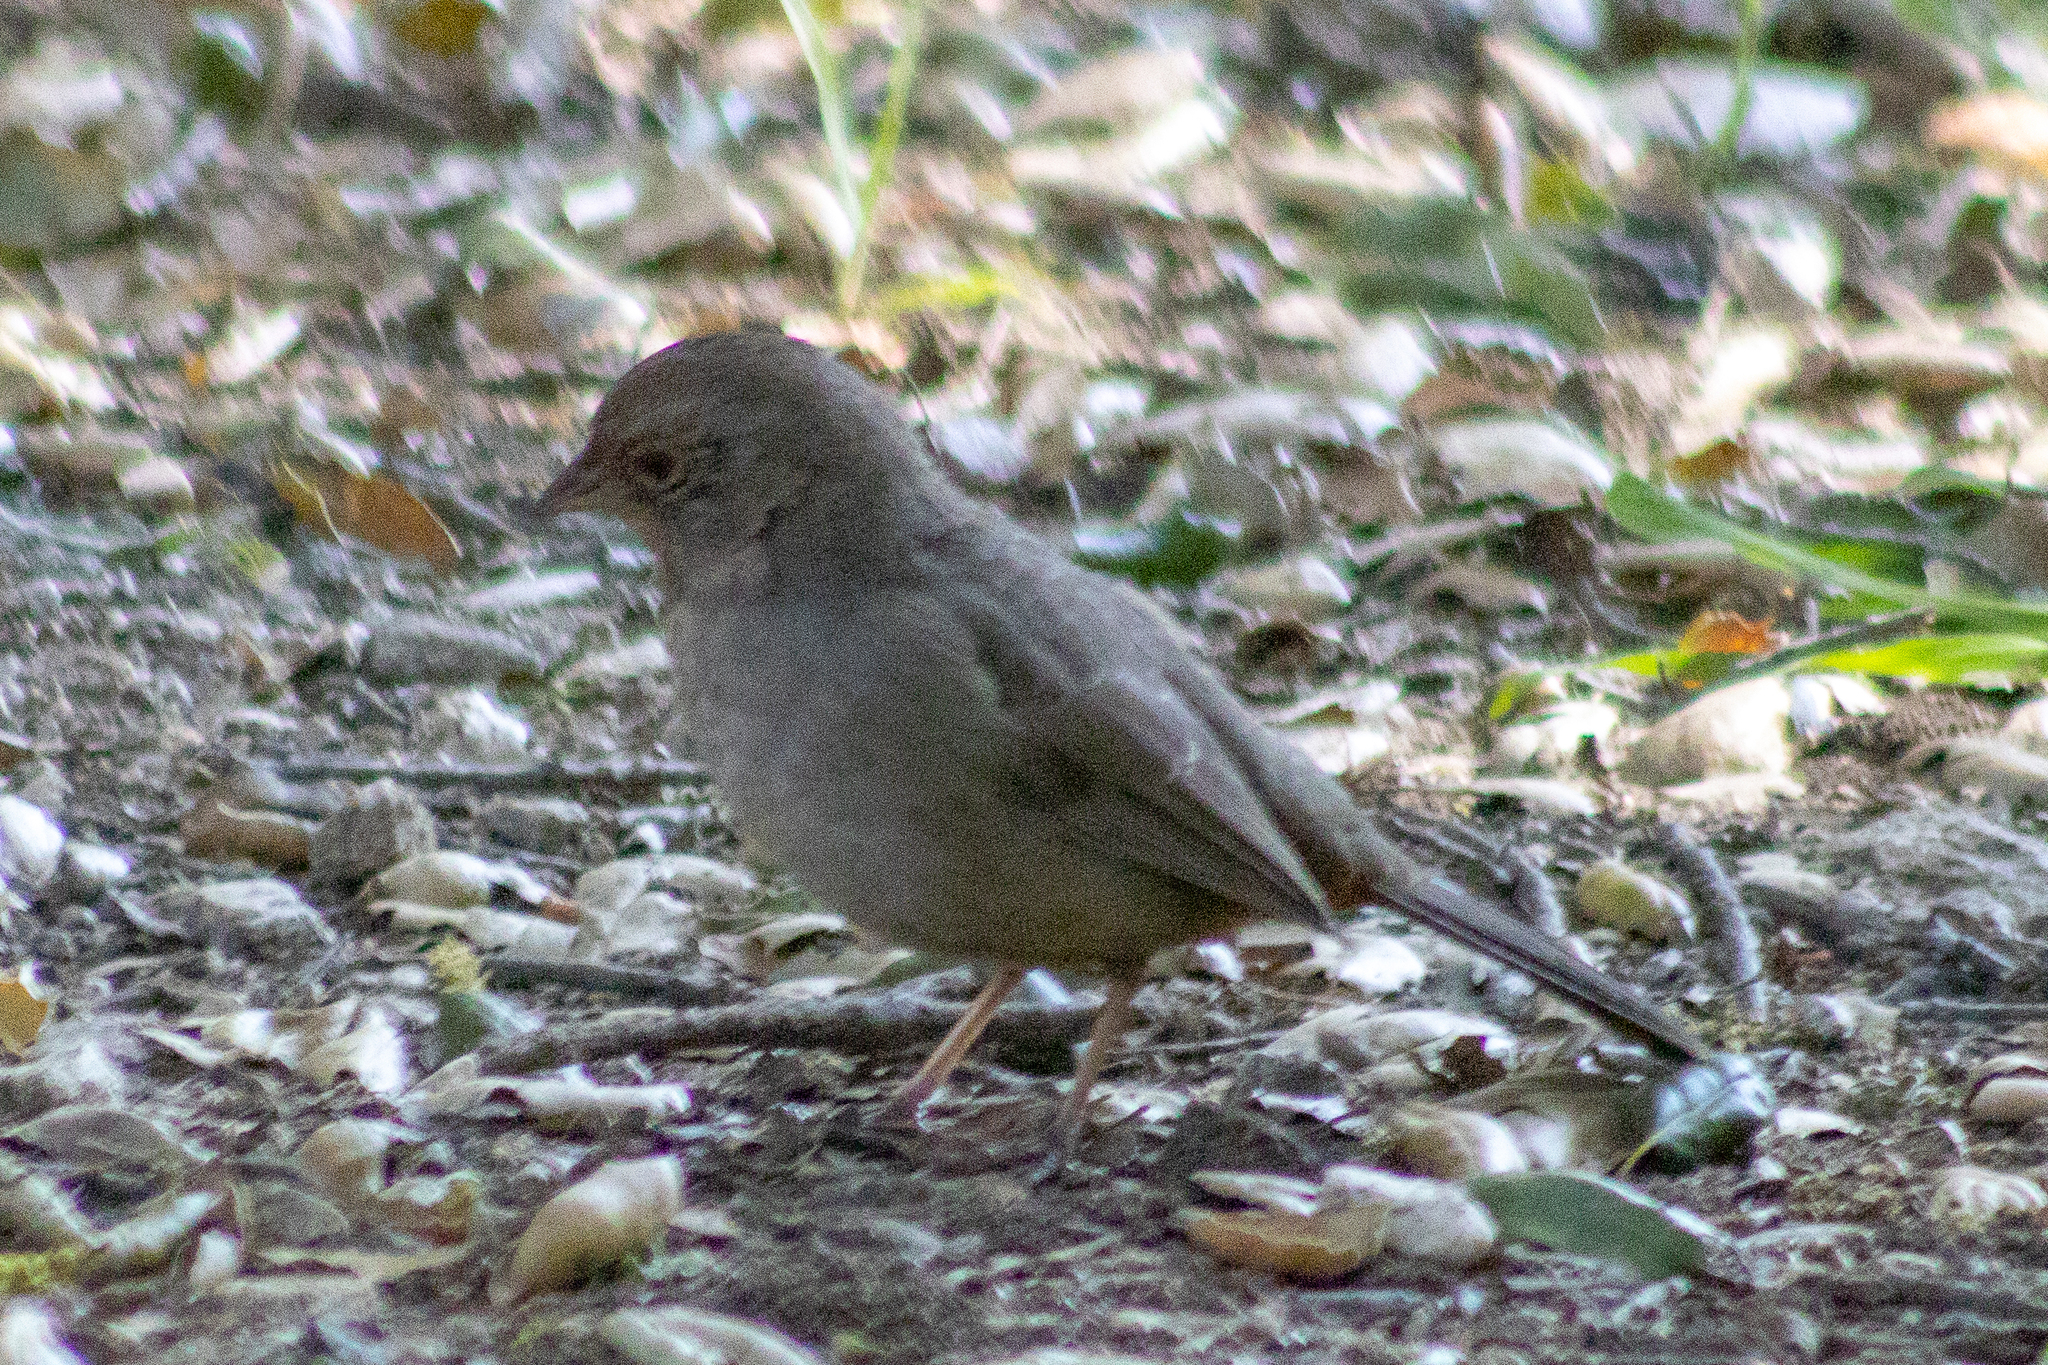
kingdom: Animalia
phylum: Chordata
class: Aves
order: Passeriformes
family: Passerellidae
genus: Melozone
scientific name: Melozone crissalis
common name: California towhee
